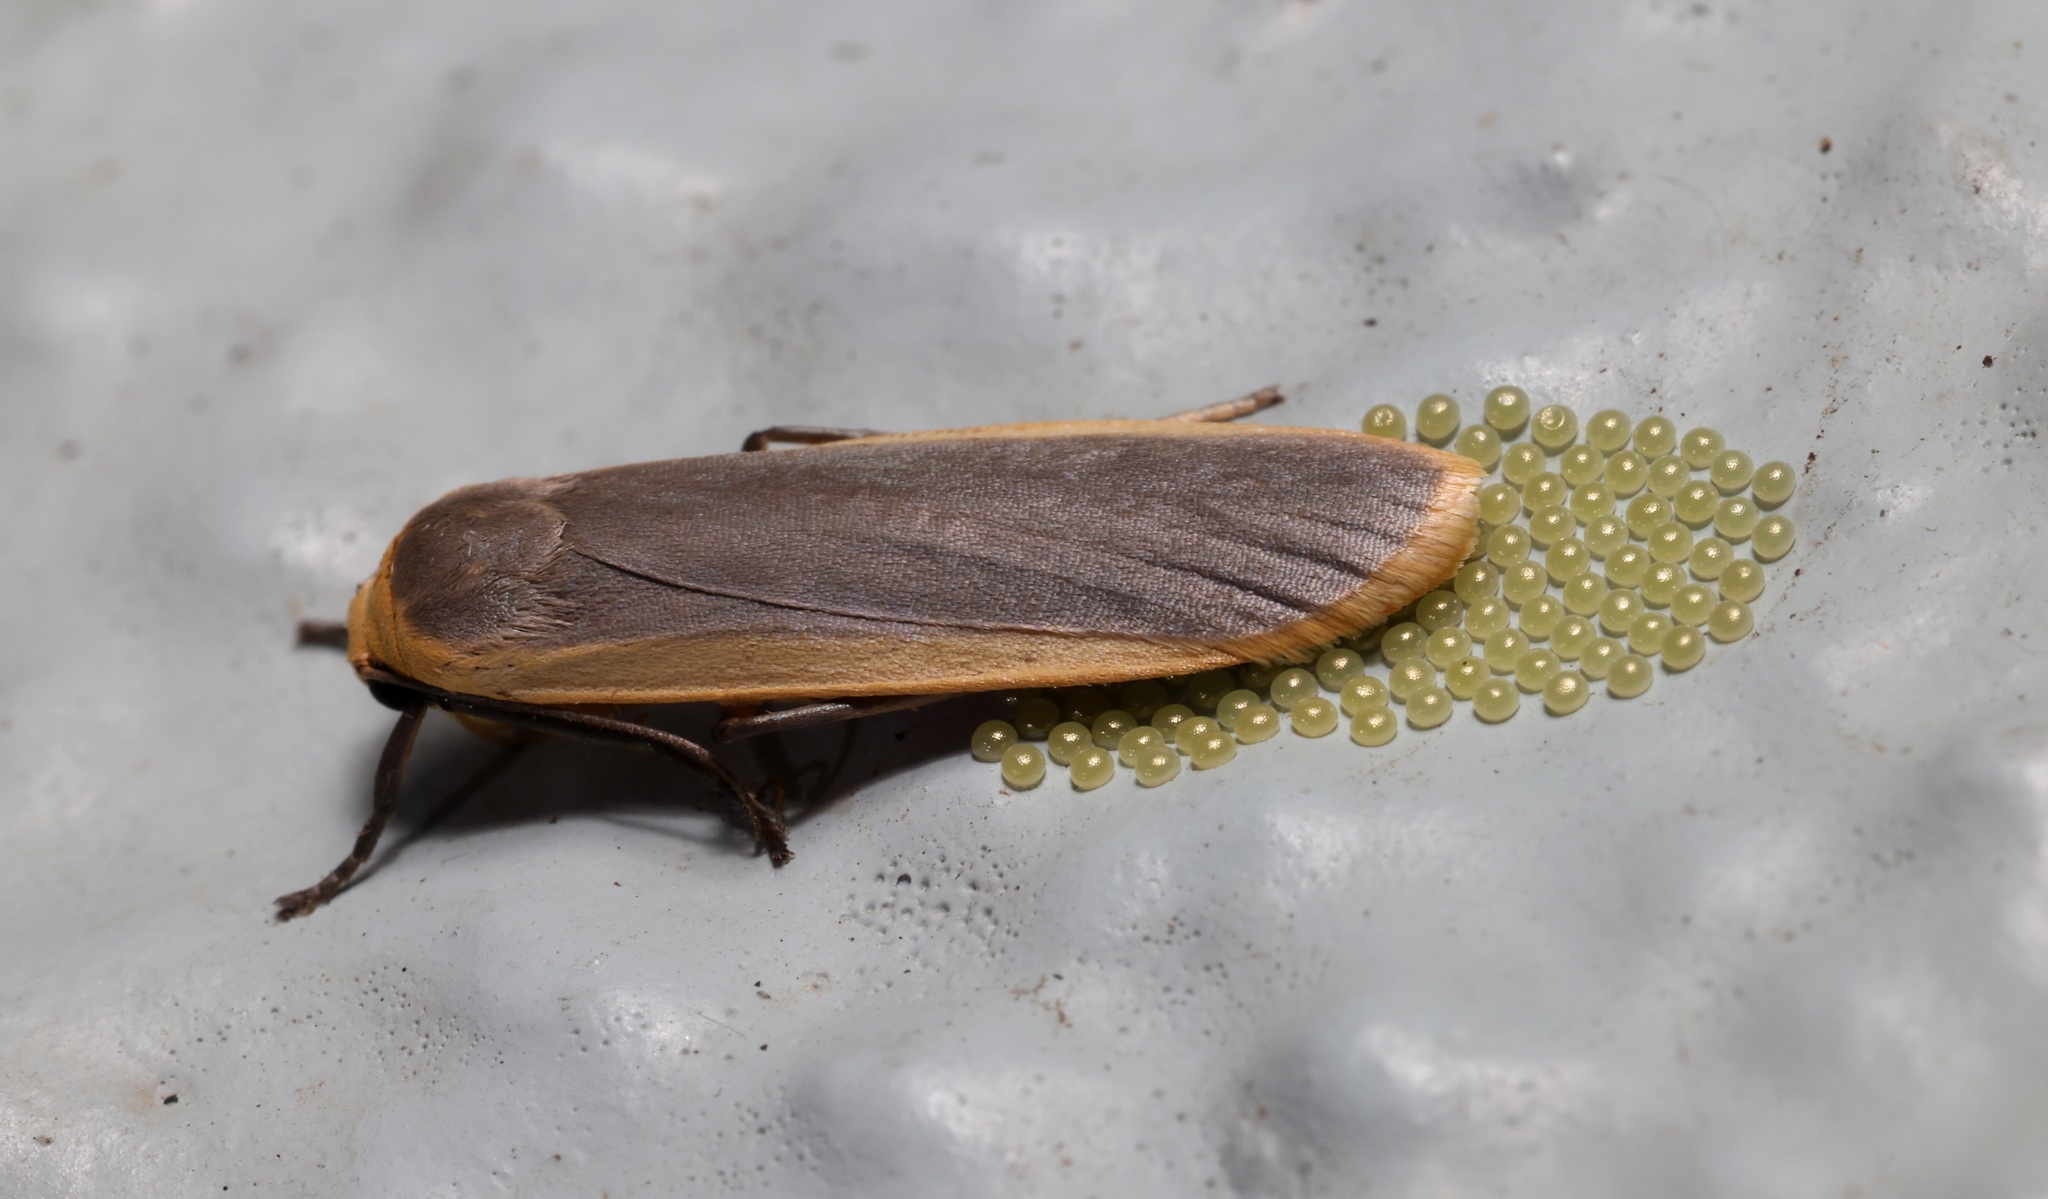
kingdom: Animalia
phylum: Arthropoda
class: Insecta
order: Lepidoptera
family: Erebidae
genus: Brunia
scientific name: Brunia antica
